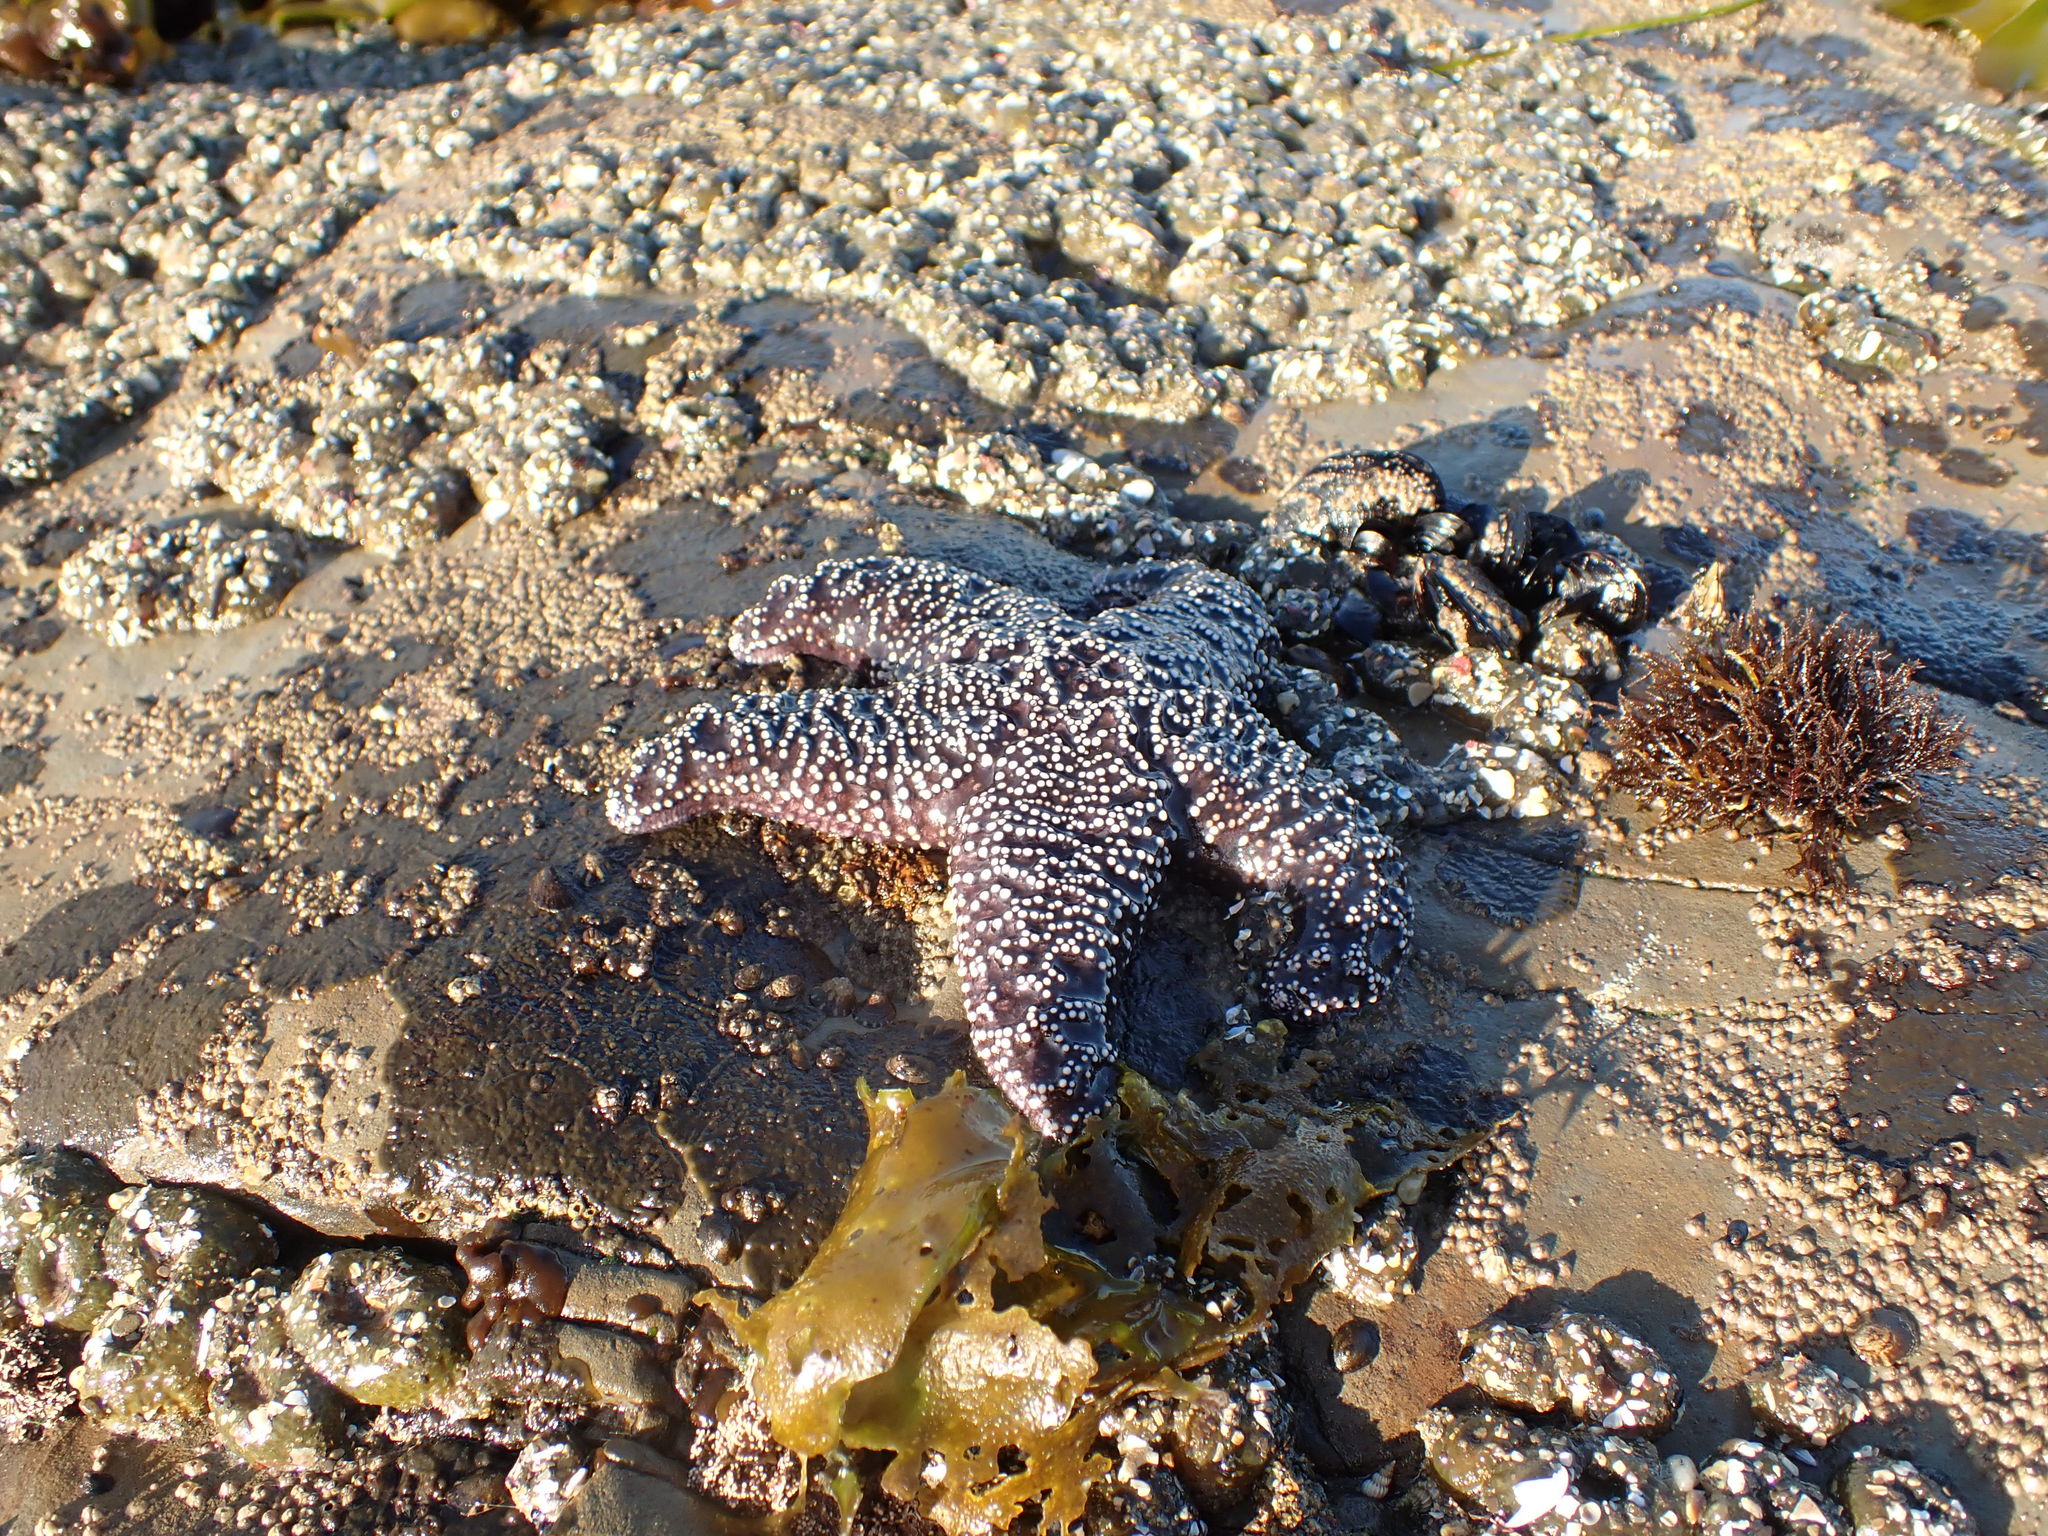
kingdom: Animalia
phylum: Echinodermata
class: Asteroidea
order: Forcipulatida
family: Asteriidae
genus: Pisaster
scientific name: Pisaster ochraceus
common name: Ochre stars
